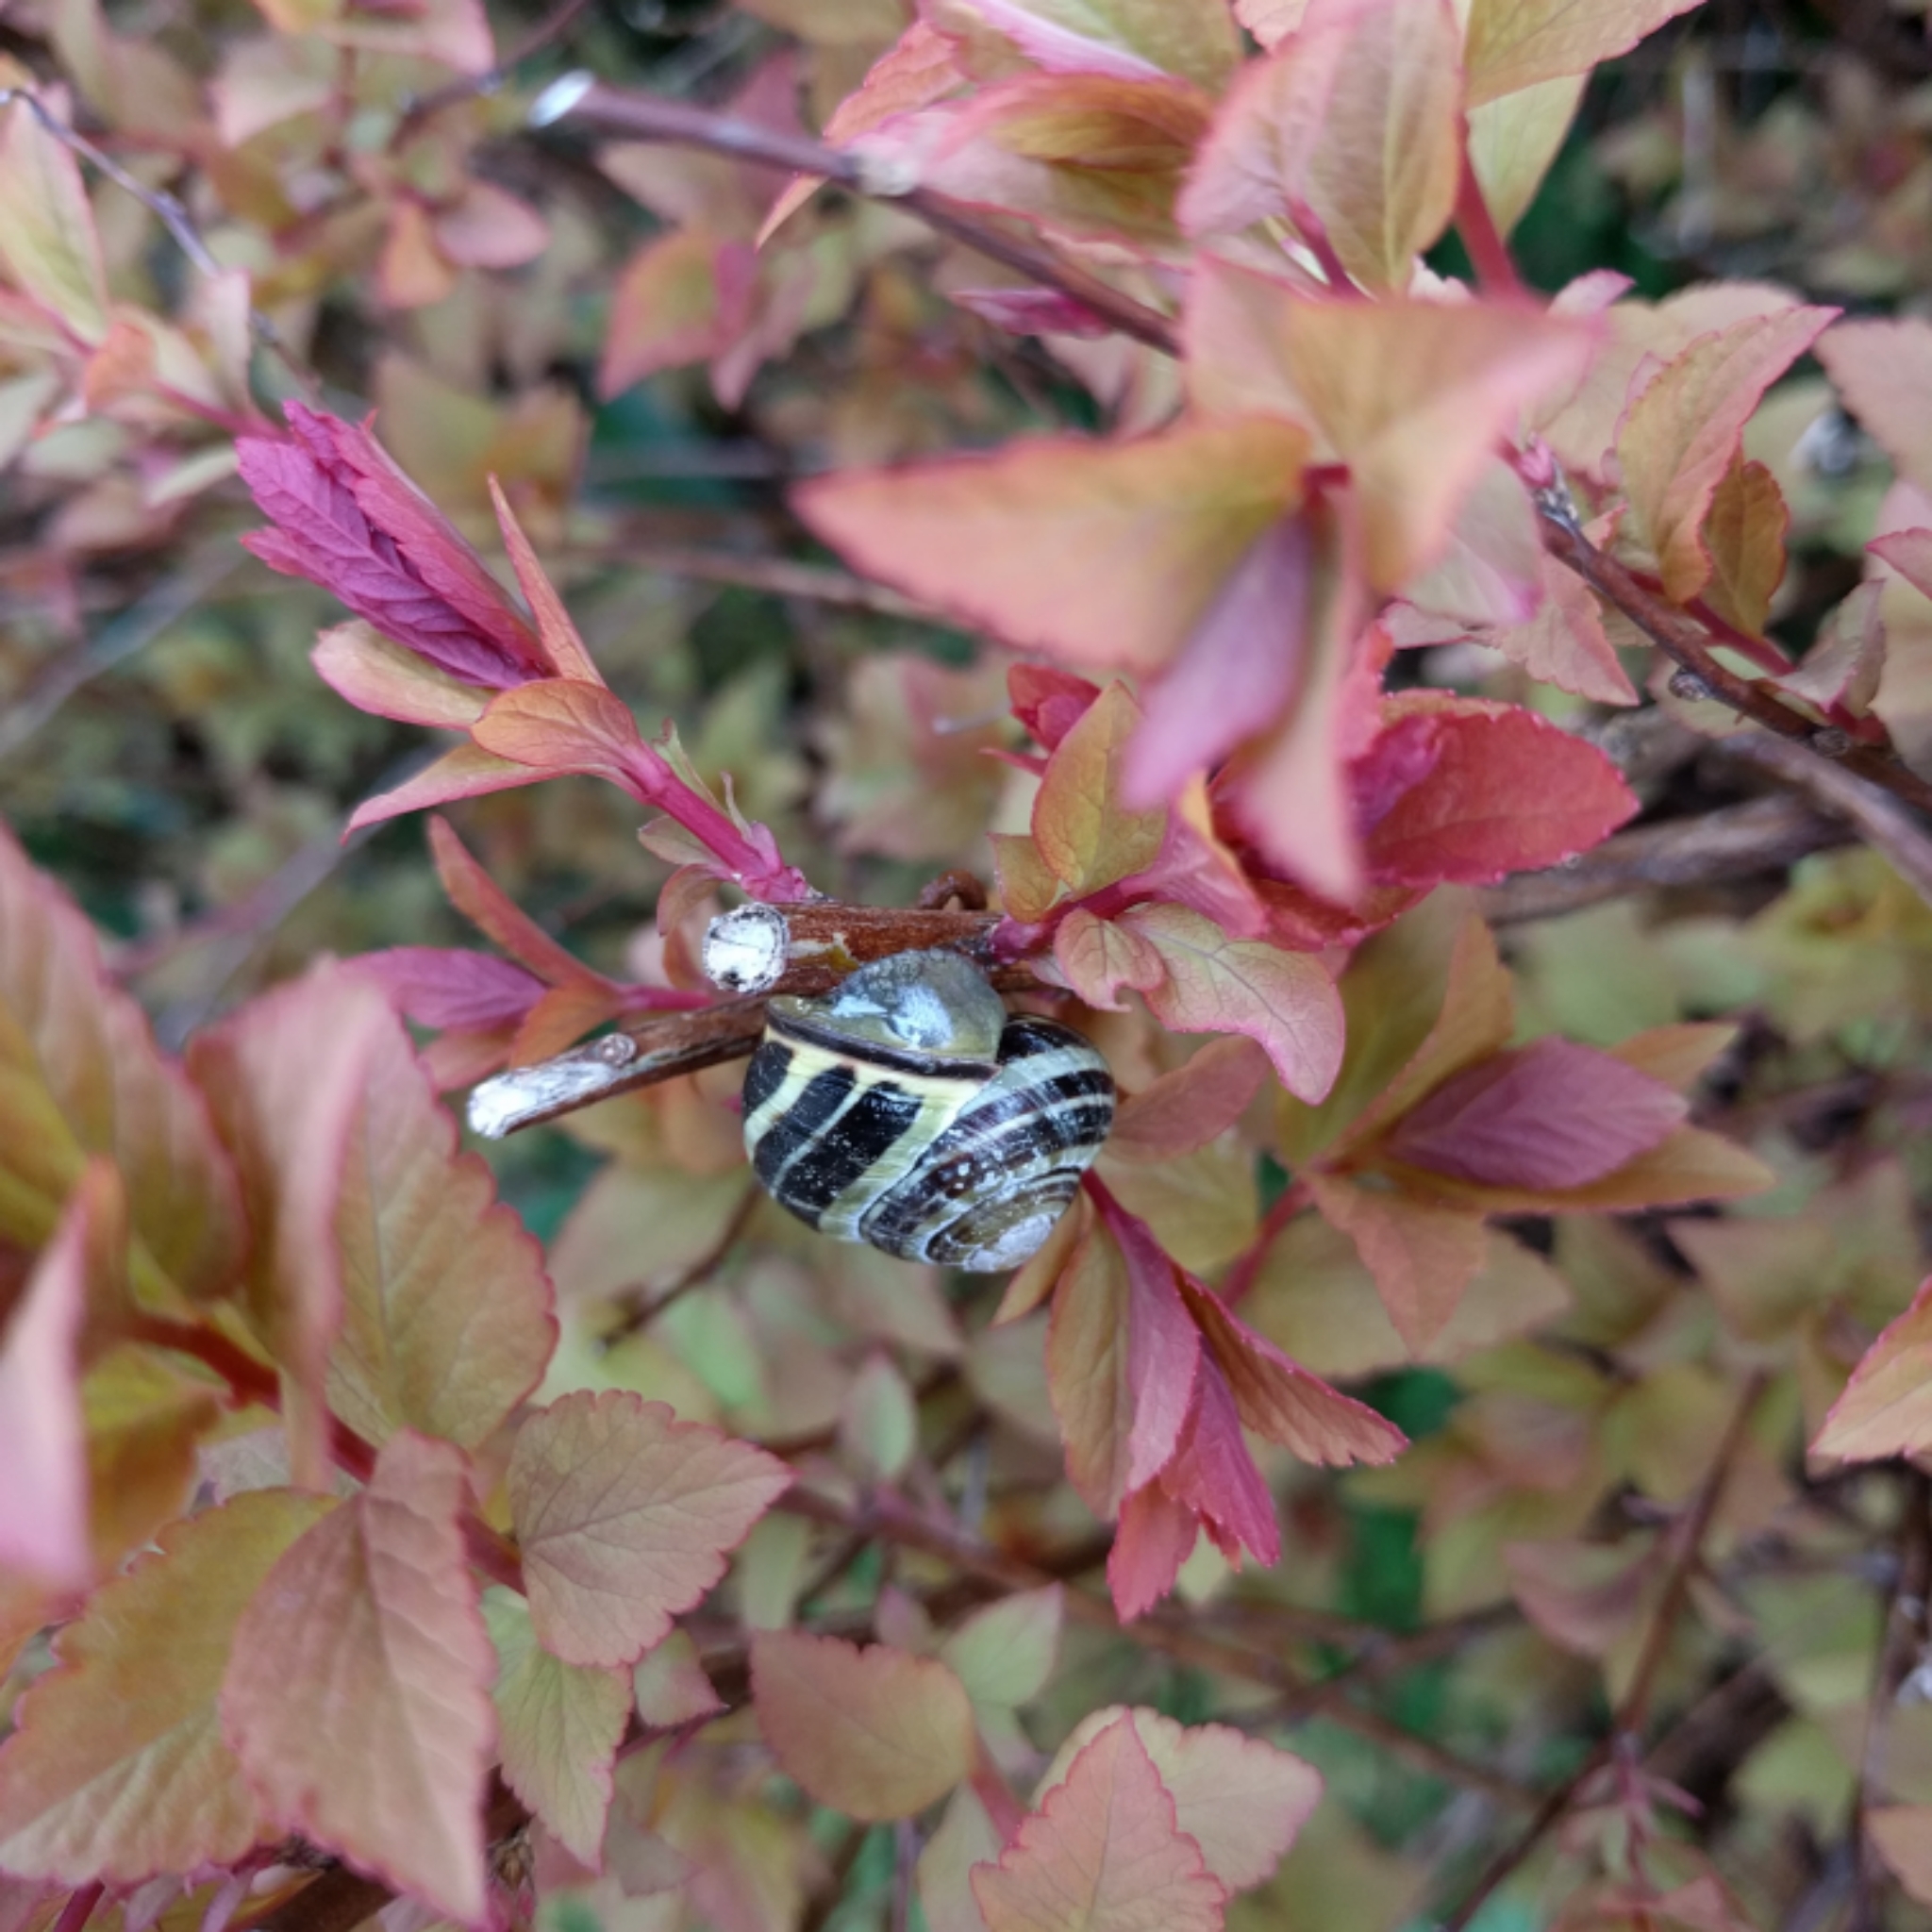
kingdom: Animalia
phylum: Mollusca
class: Gastropoda
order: Stylommatophora
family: Helicidae
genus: Cepaea
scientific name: Cepaea nemoralis
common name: Grovesnail
